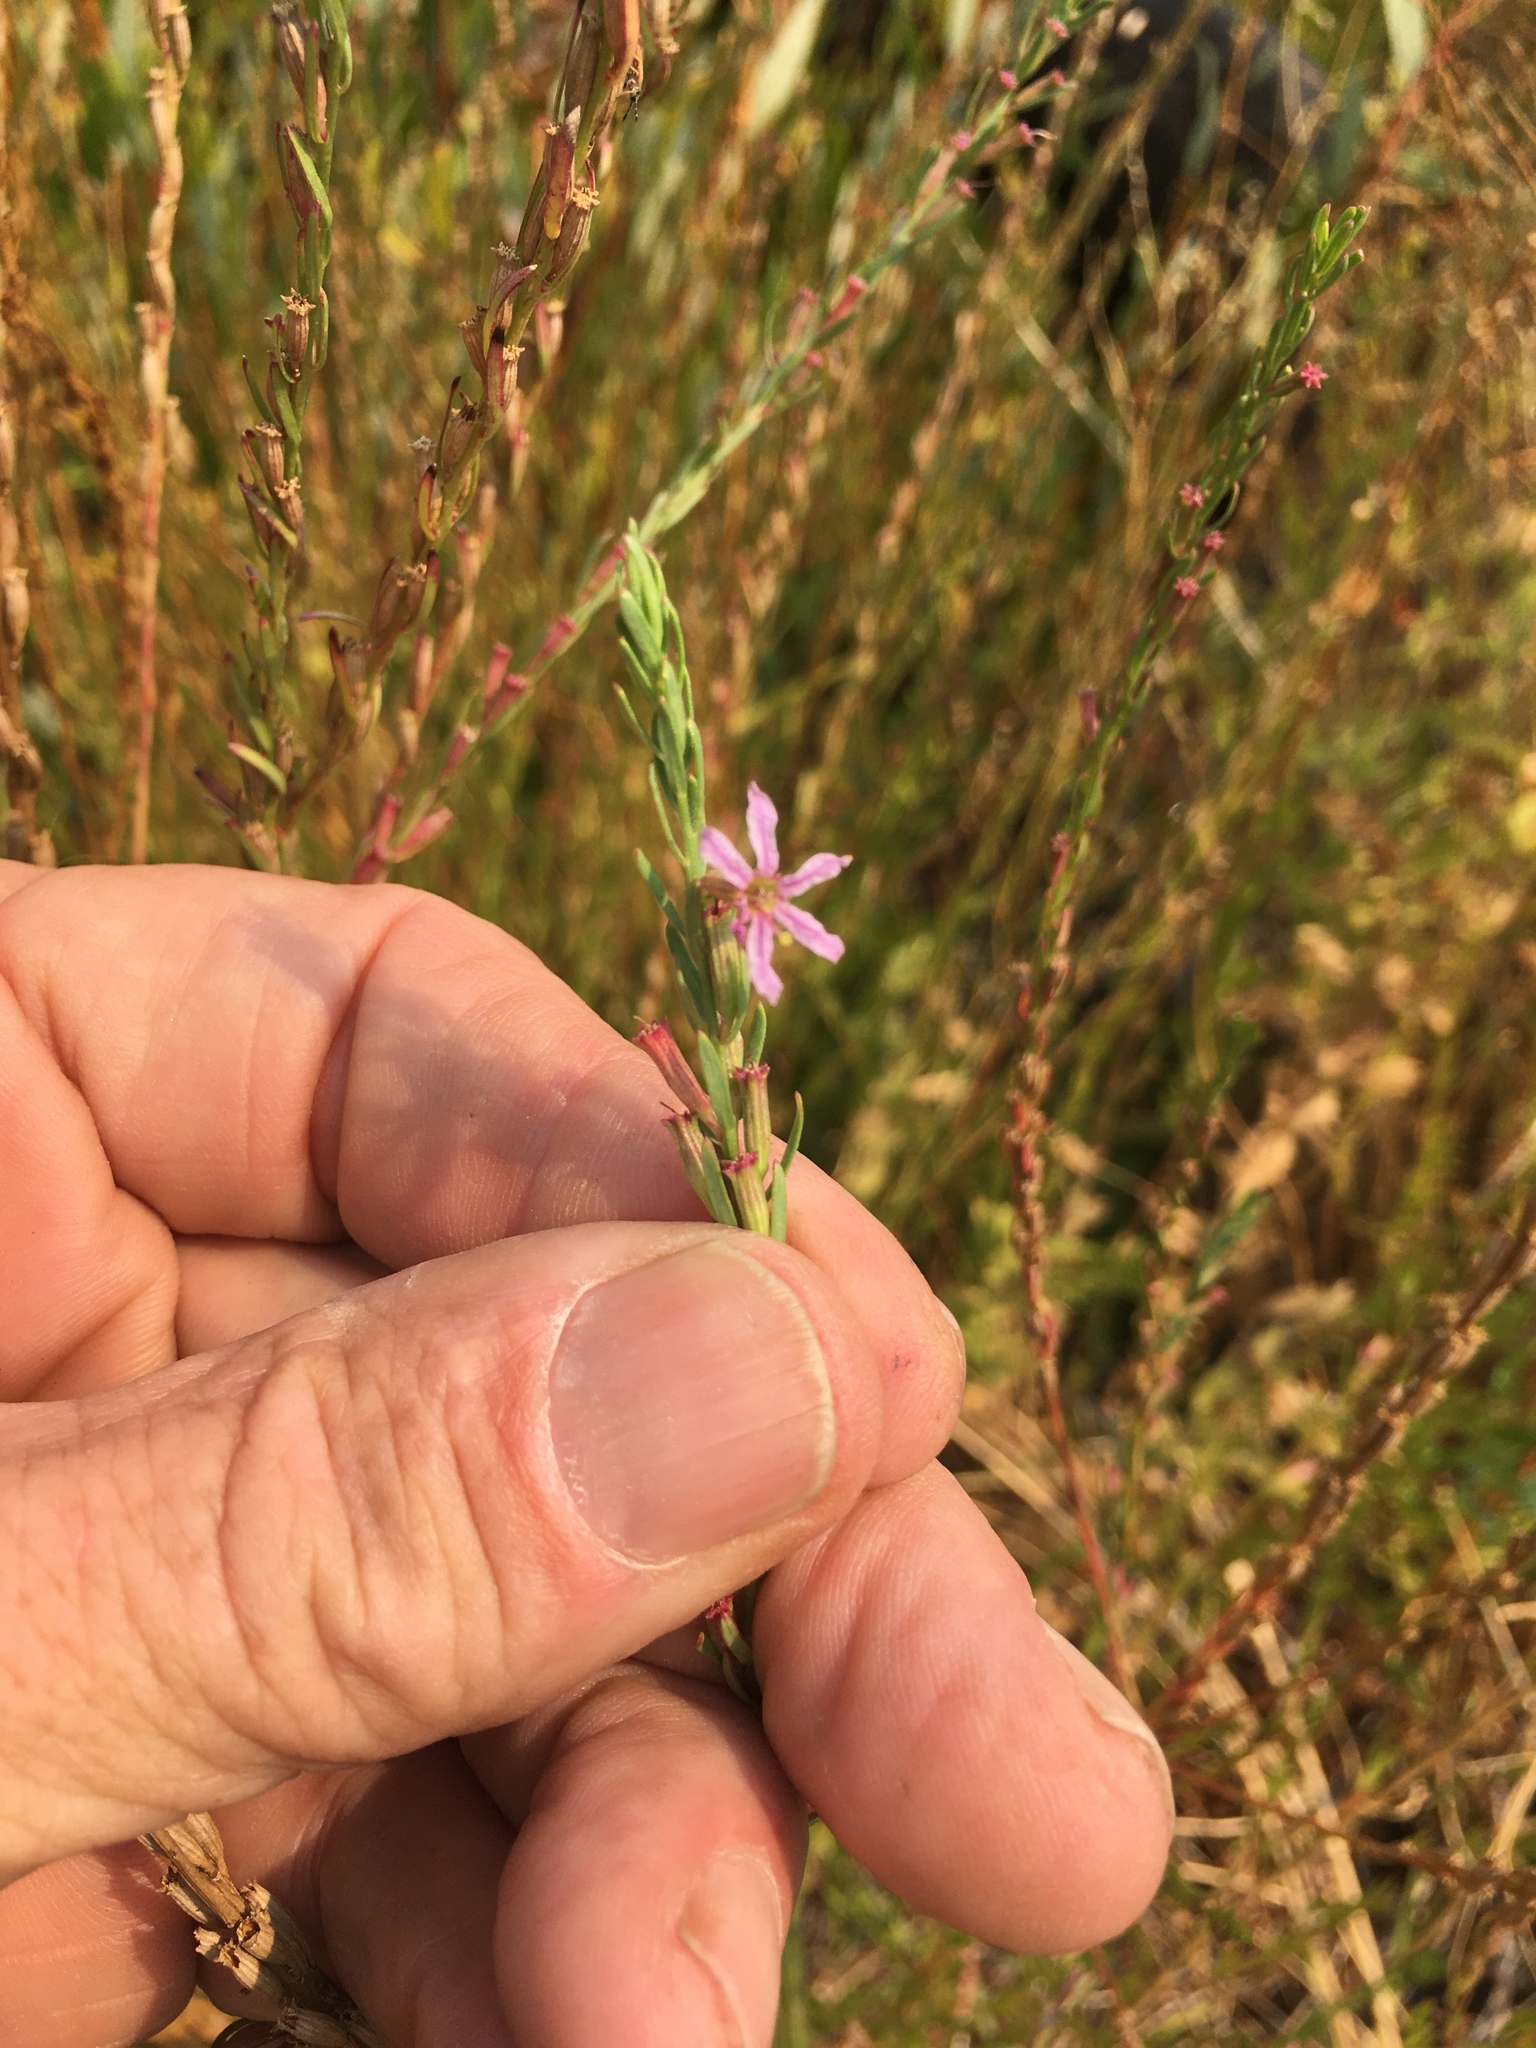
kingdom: Plantae
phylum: Tracheophyta
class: Magnoliopsida
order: Myrtales
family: Lythraceae
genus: Lythrum
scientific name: Lythrum californicum
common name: California loosestrife
